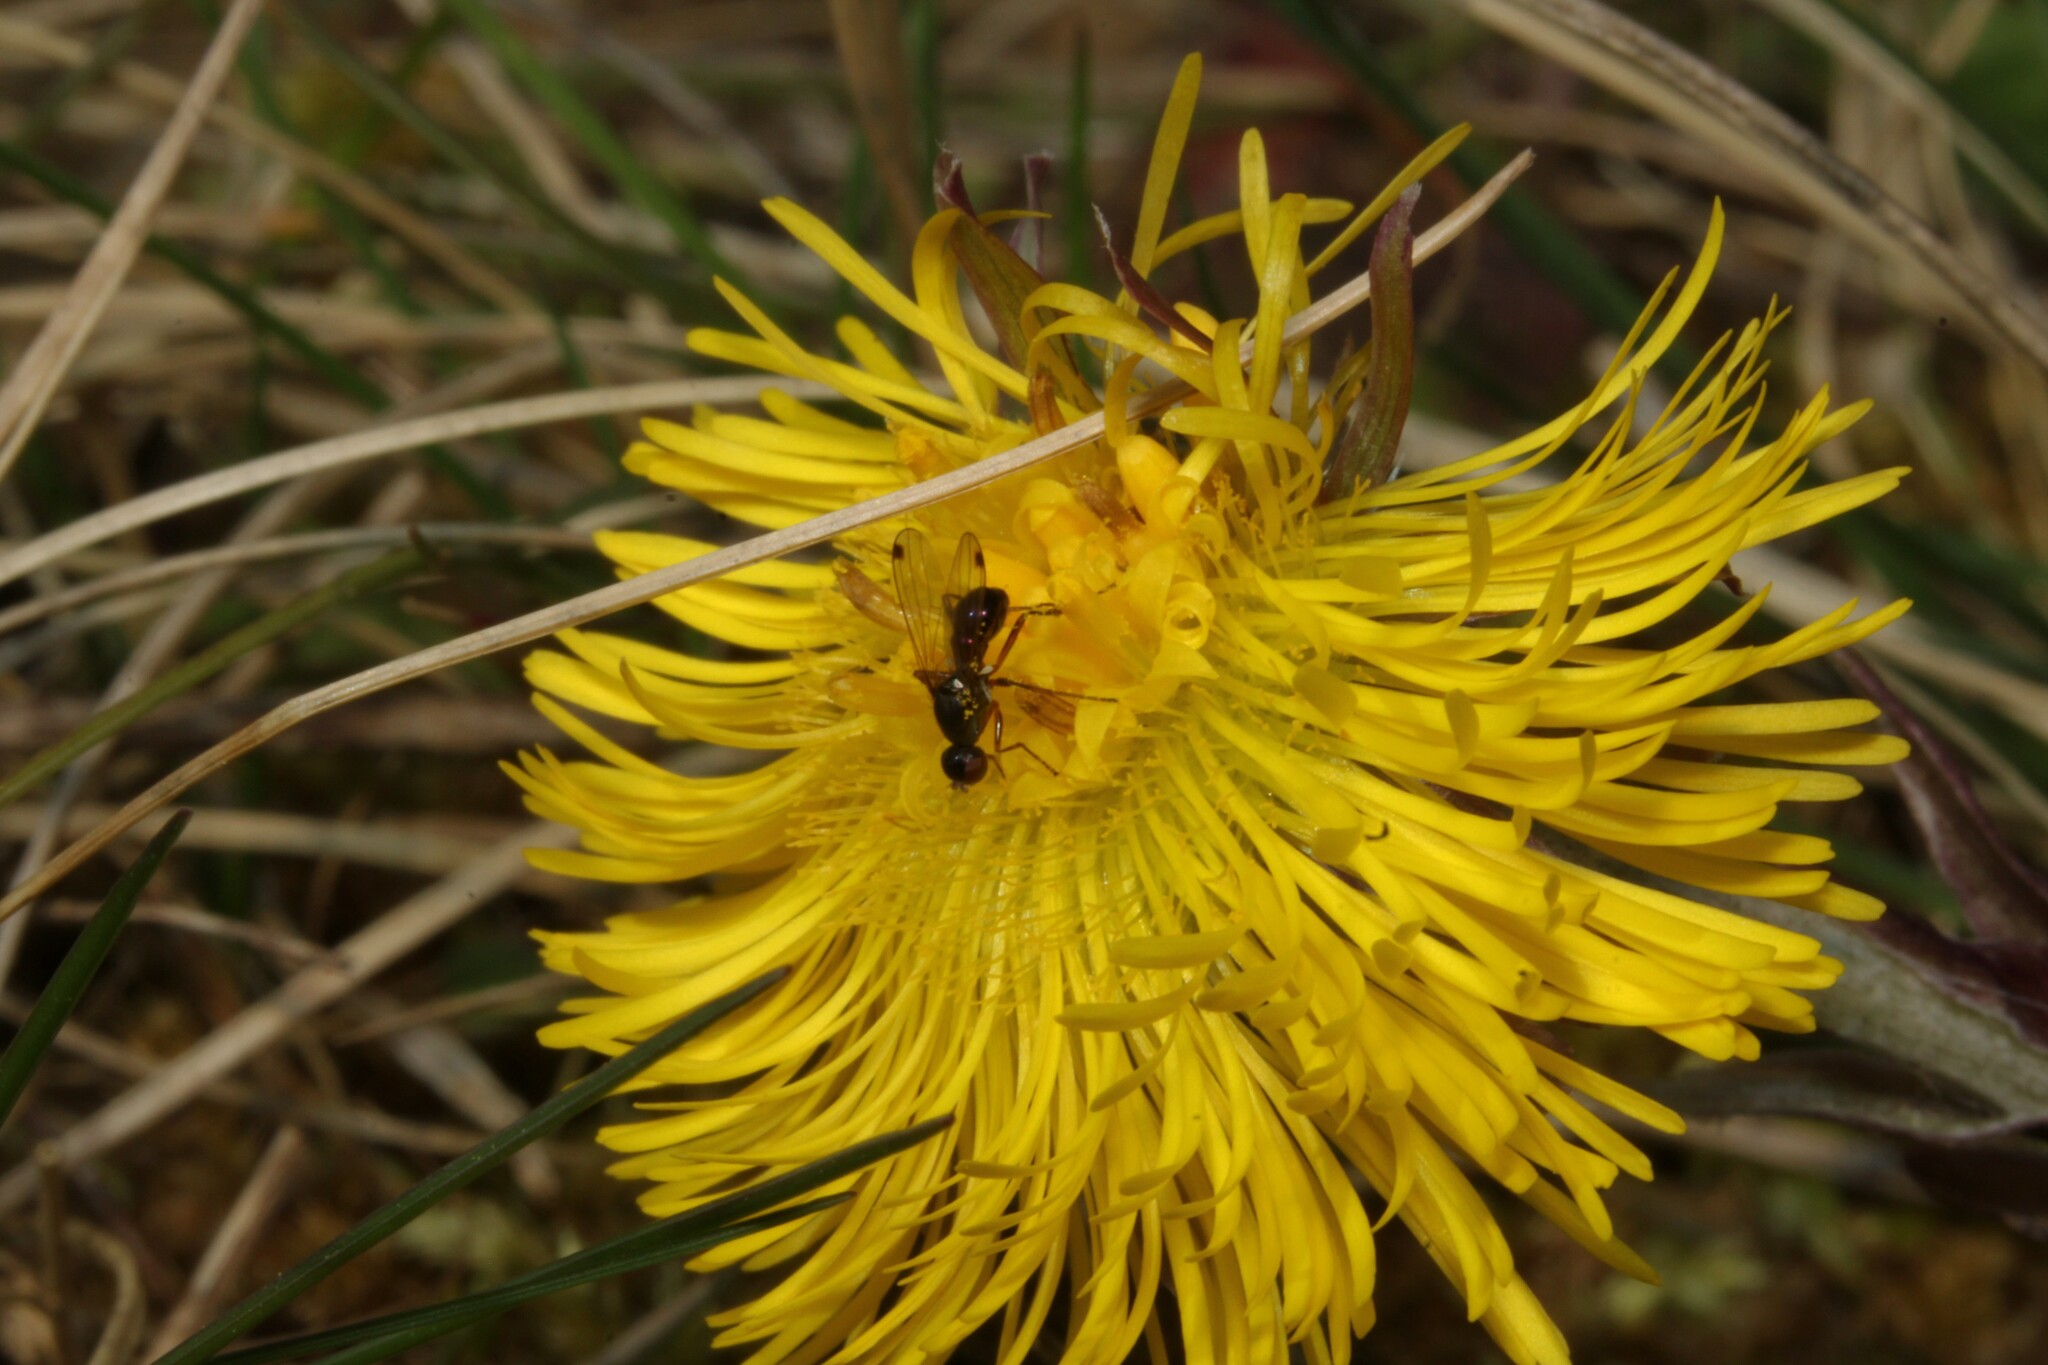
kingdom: Plantae
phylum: Tracheophyta
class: Magnoliopsida
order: Asterales
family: Asteraceae
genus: Tussilago
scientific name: Tussilago farfara
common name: Coltsfoot
